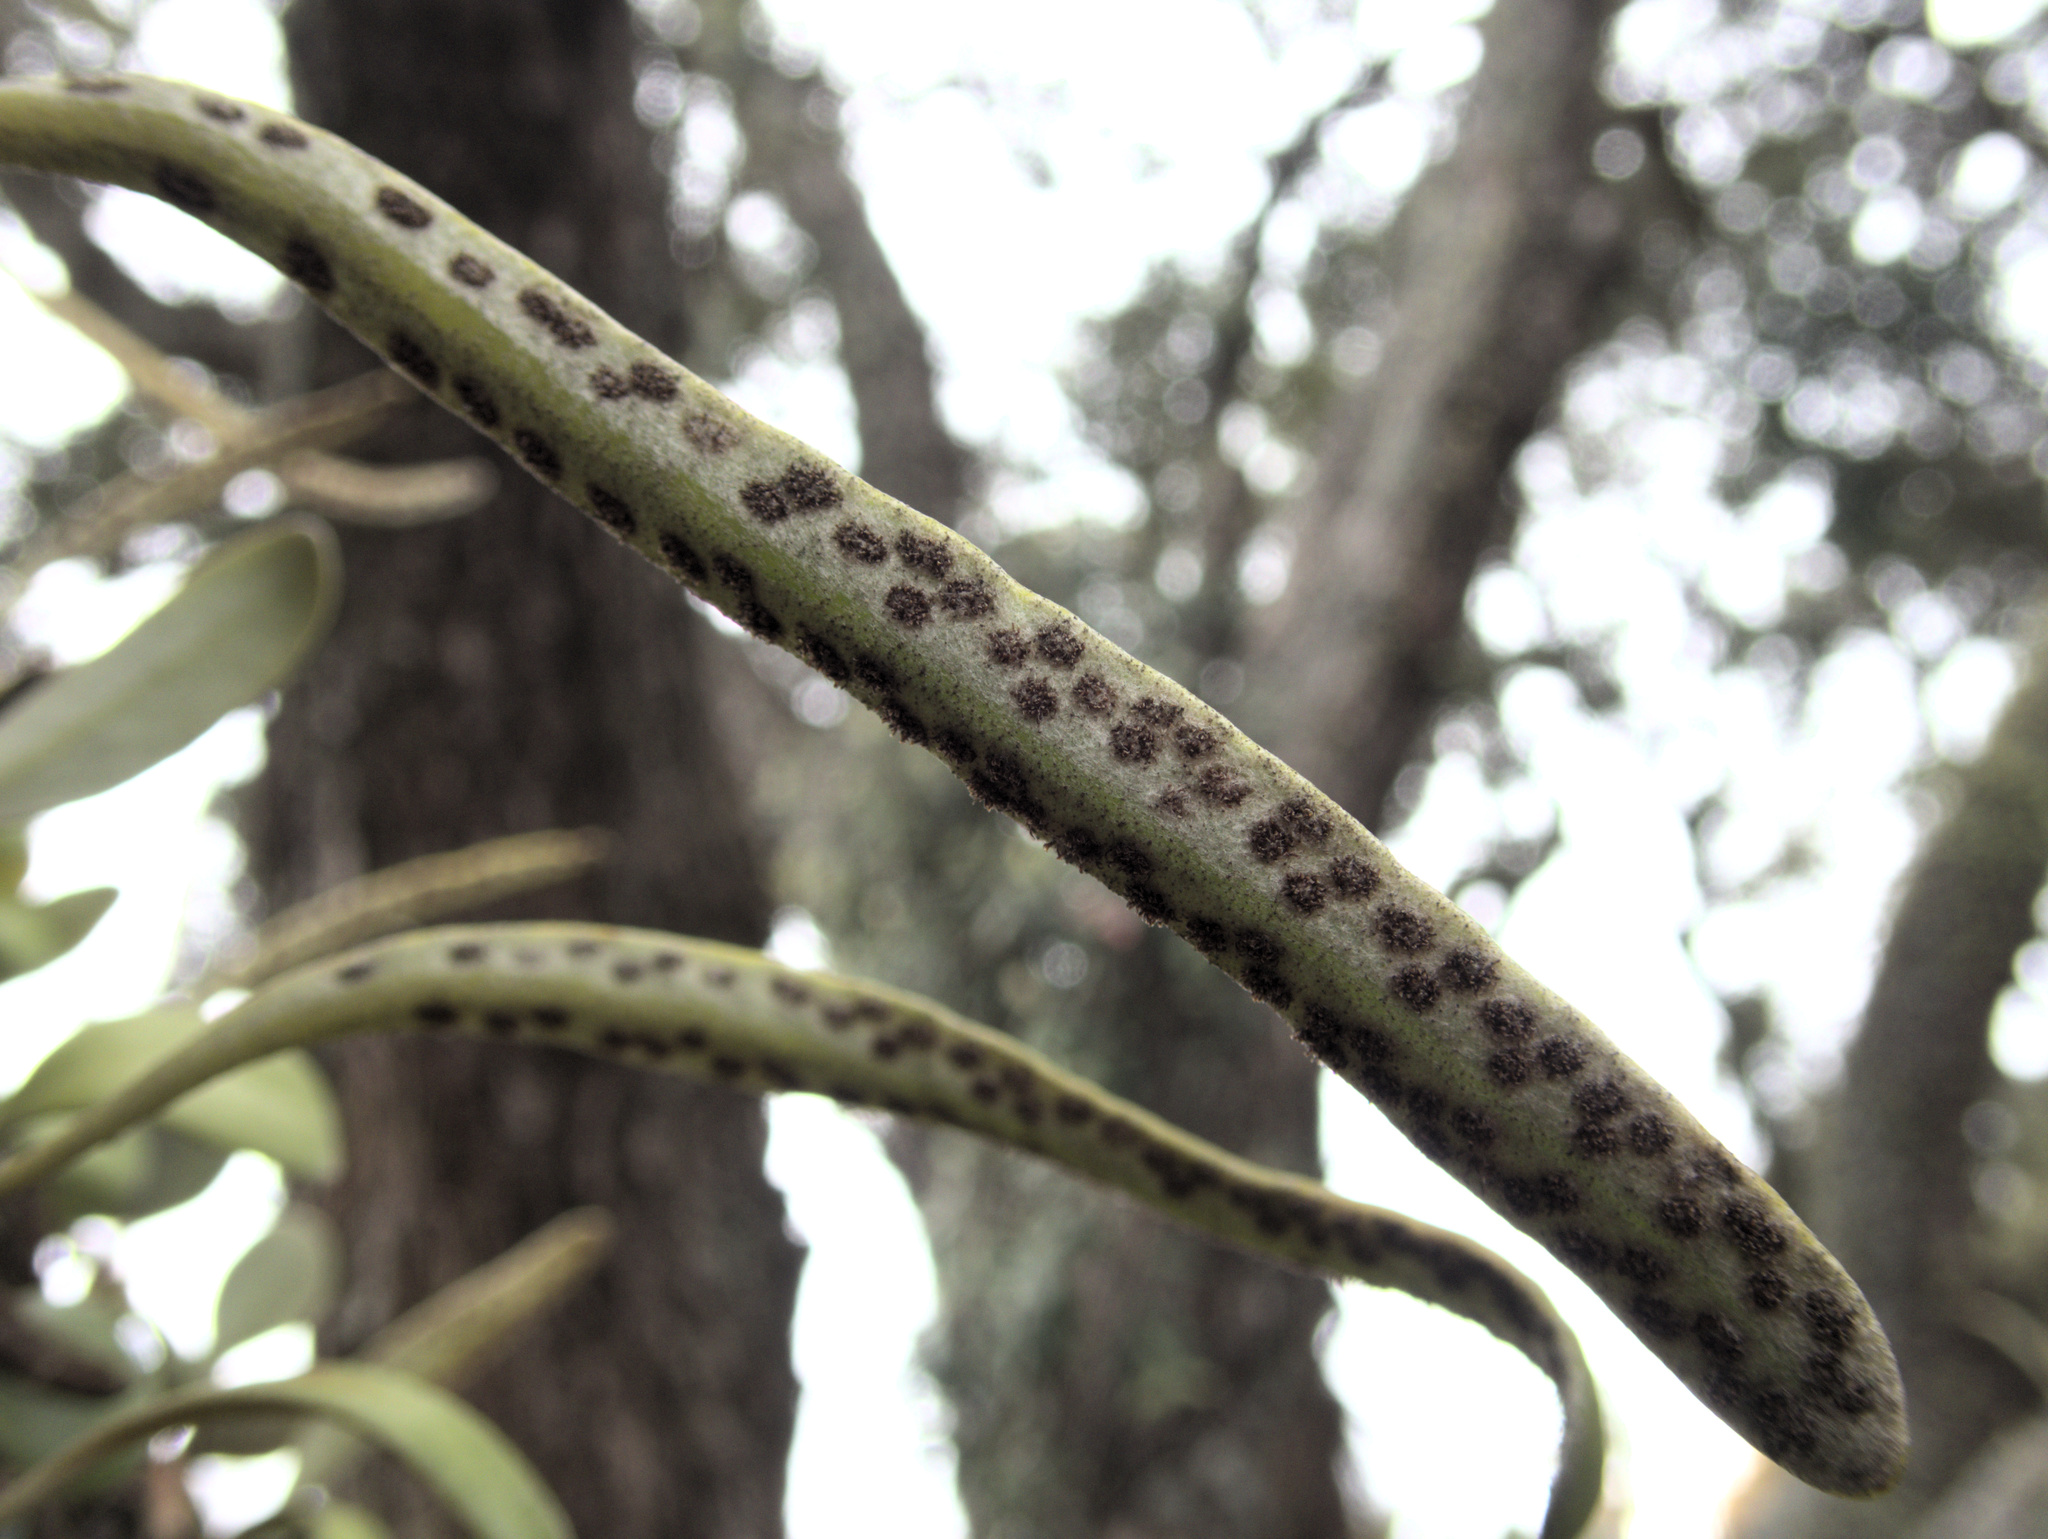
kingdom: Plantae
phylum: Tracheophyta
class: Polypodiopsida
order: Polypodiales
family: Polypodiaceae
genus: Pyrrosia
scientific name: Pyrrosia eleagnifolia
